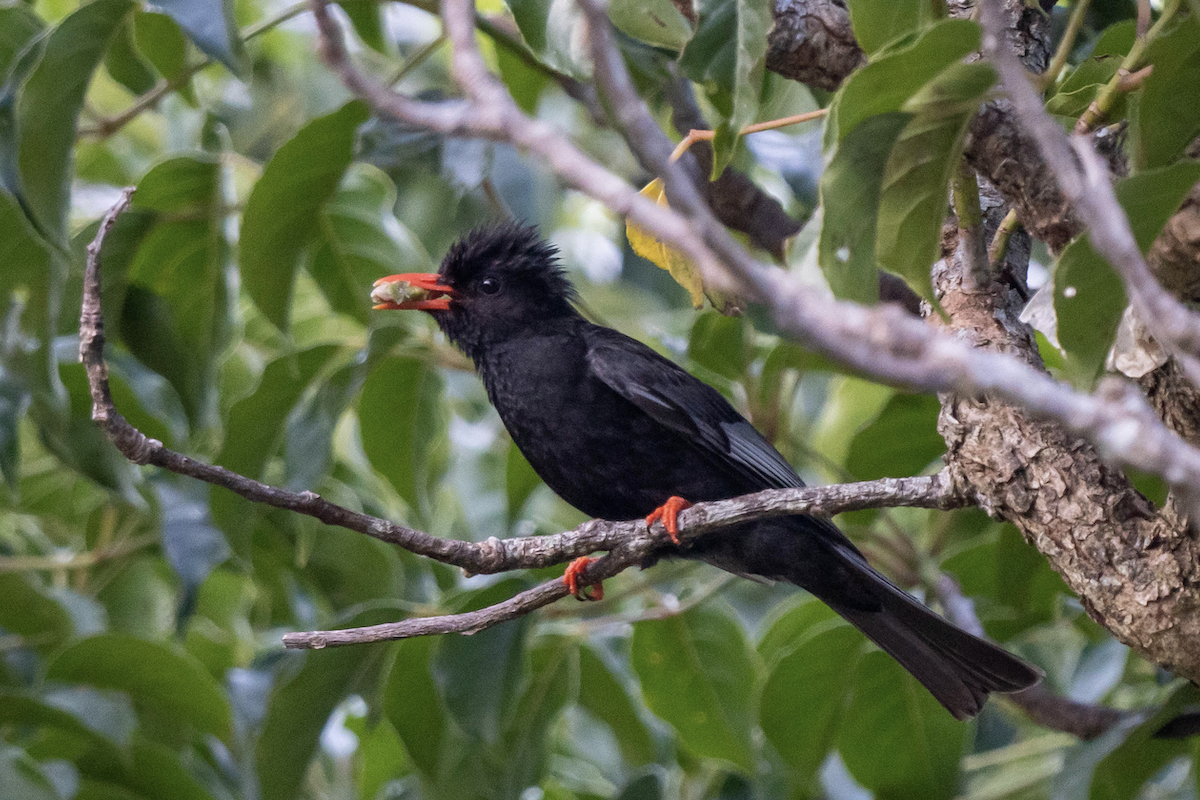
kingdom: Animalia
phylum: Chordata
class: Aves
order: Passeriformes
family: Pycnonotidae
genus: Hypsipetes
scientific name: Hypsipetes leucocephalus
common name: Black bulbul
